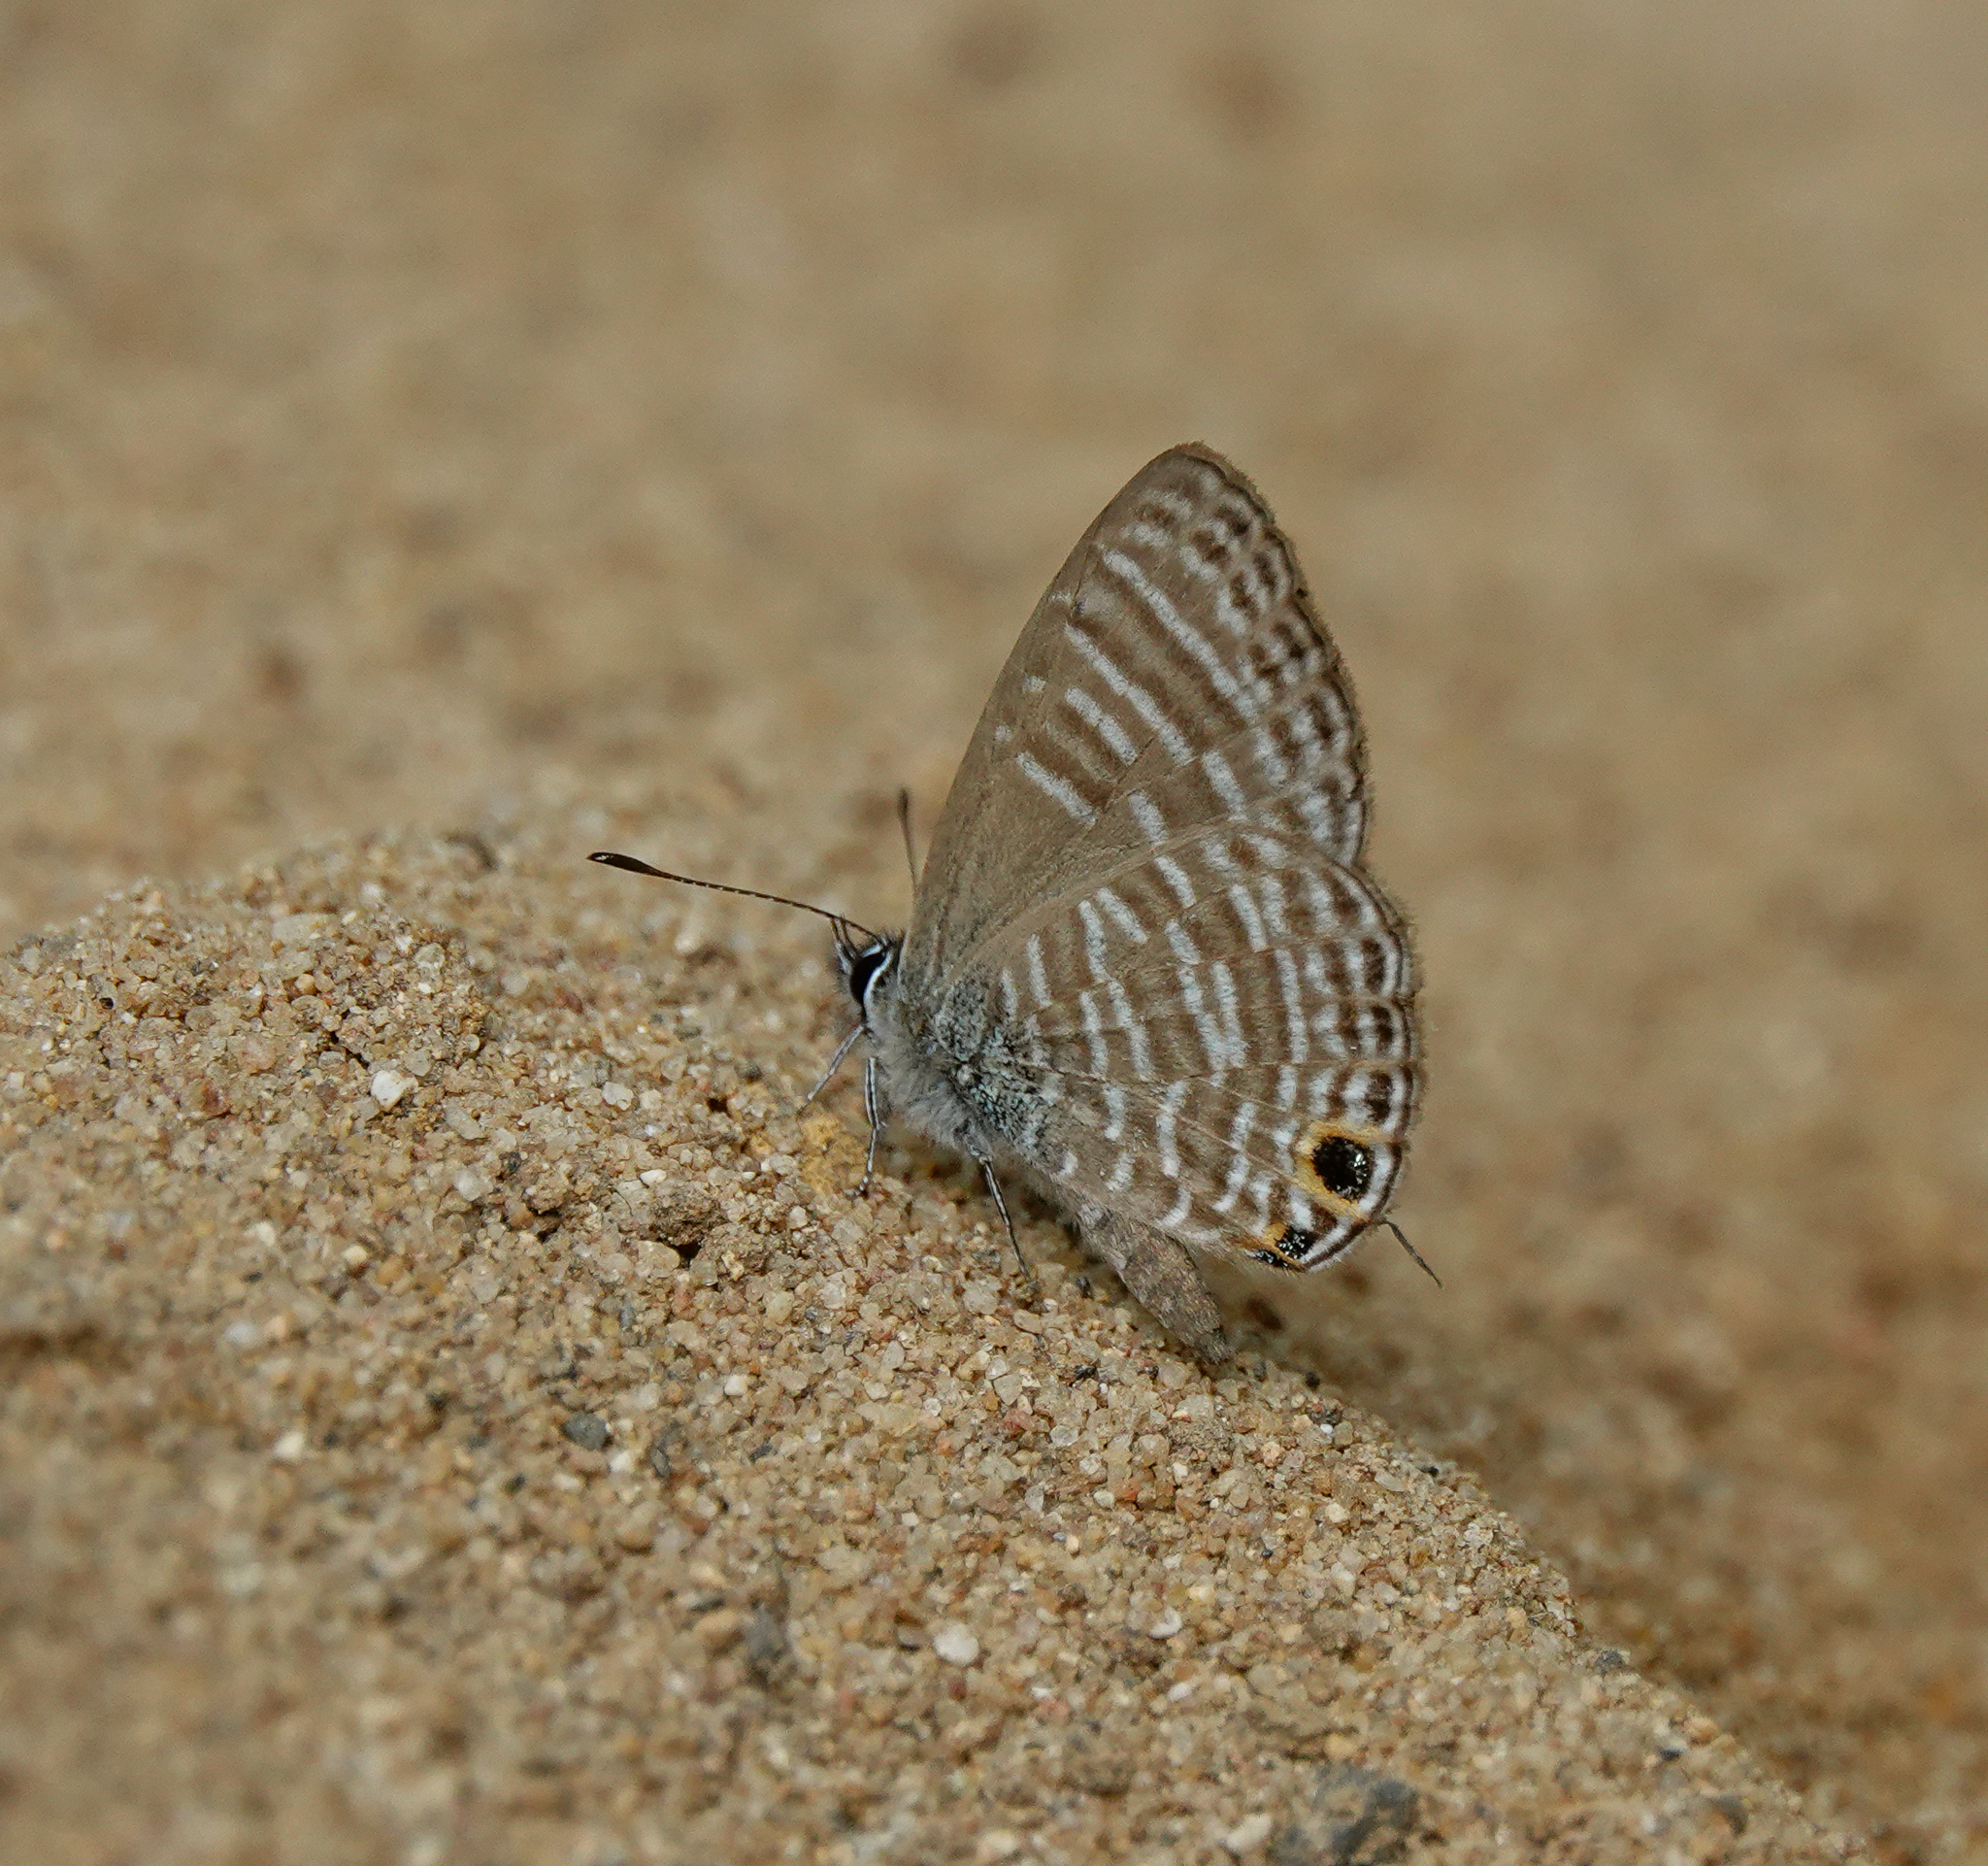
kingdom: Animalia
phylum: Arthropoda
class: Insecta
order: Lepidoptera
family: Lycaenidae
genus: Nacaduba
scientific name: Nacaduba hermus
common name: Pale four-line blue
